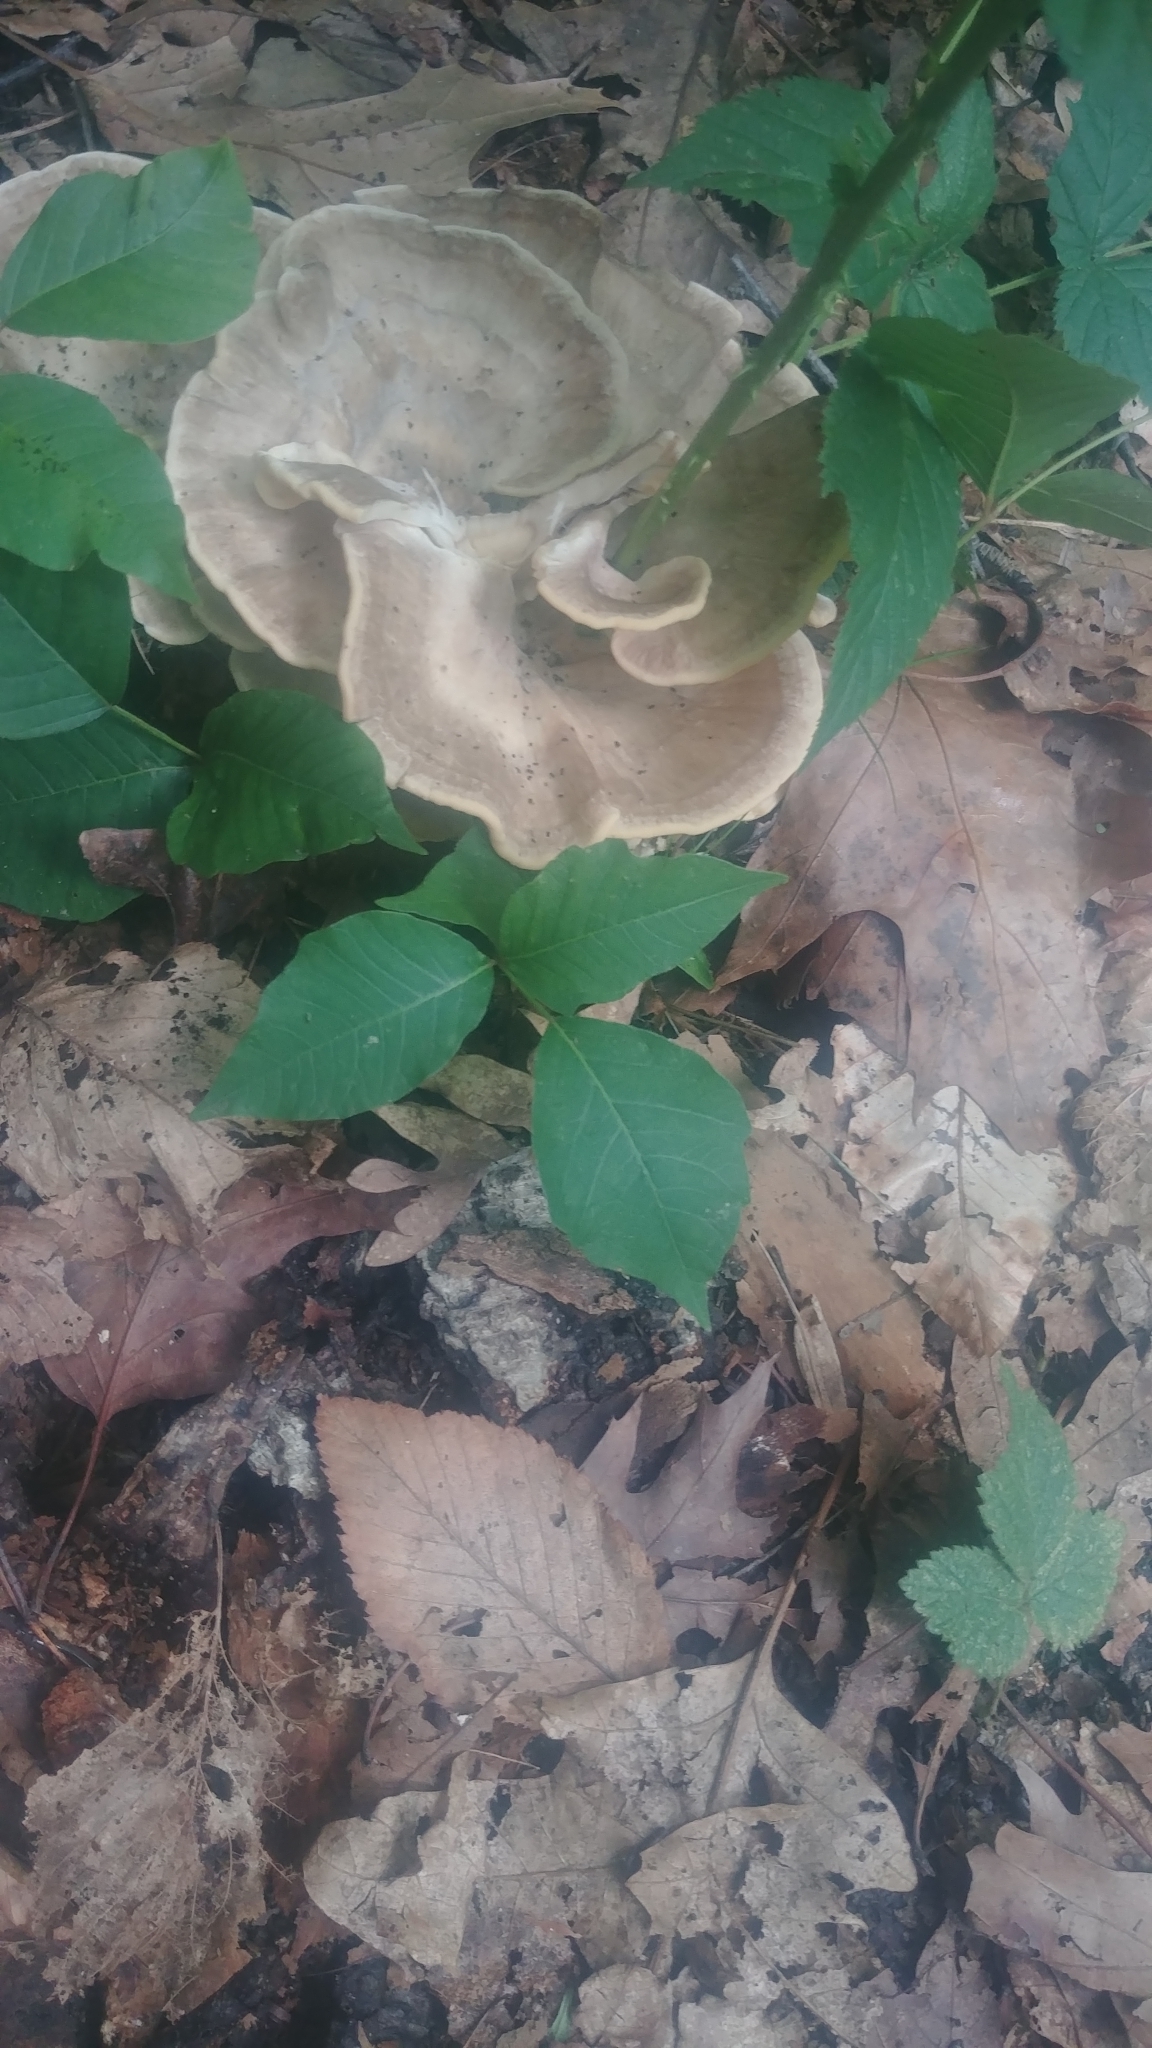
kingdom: Fungi
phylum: Basidiomycota
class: Agaricomycetes
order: Polyporales
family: Meripilaceae
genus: Meripilus
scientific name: Meripilus sumstinei
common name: Black-staining polypore
